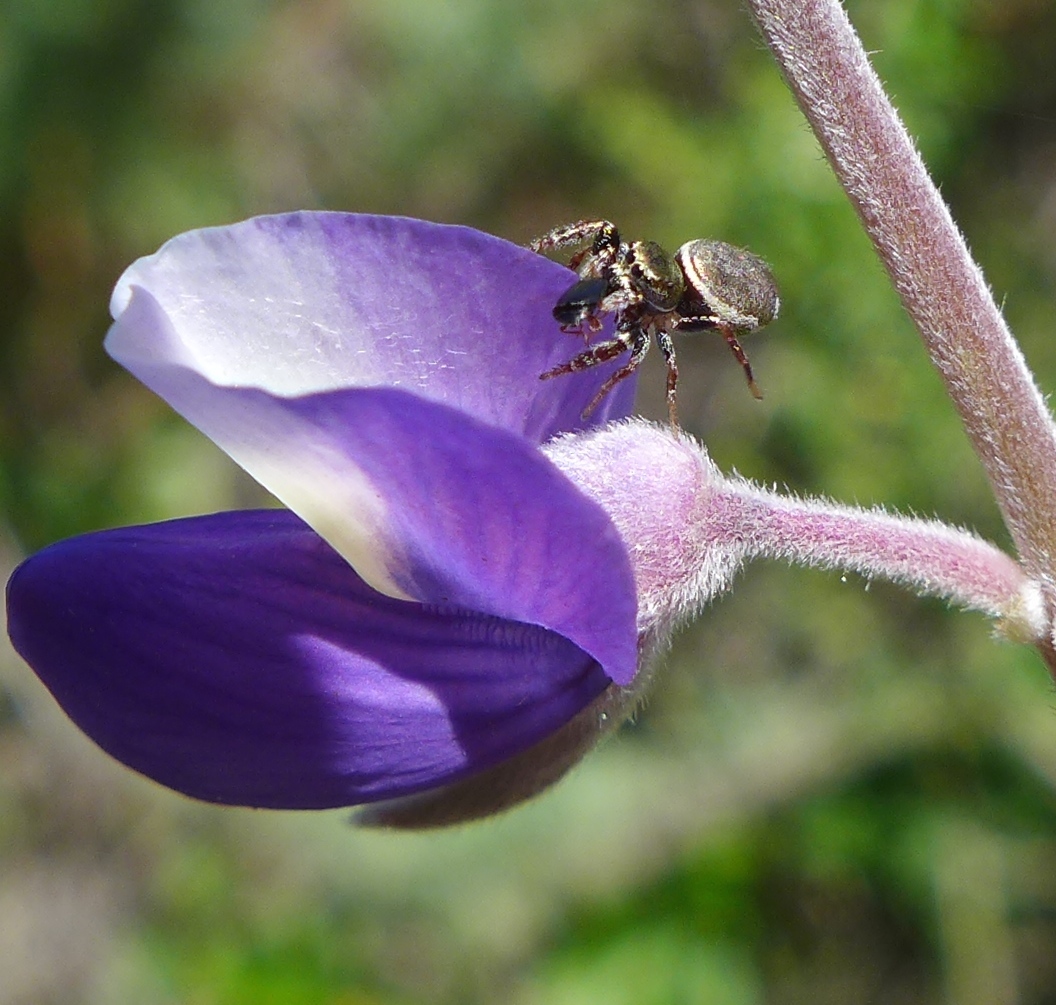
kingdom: Animalia
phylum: Arthropoda
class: Arachnida
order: Araneae
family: Salticidae
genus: Sassacus
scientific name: Sassacus vitis
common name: Jumping spiders
